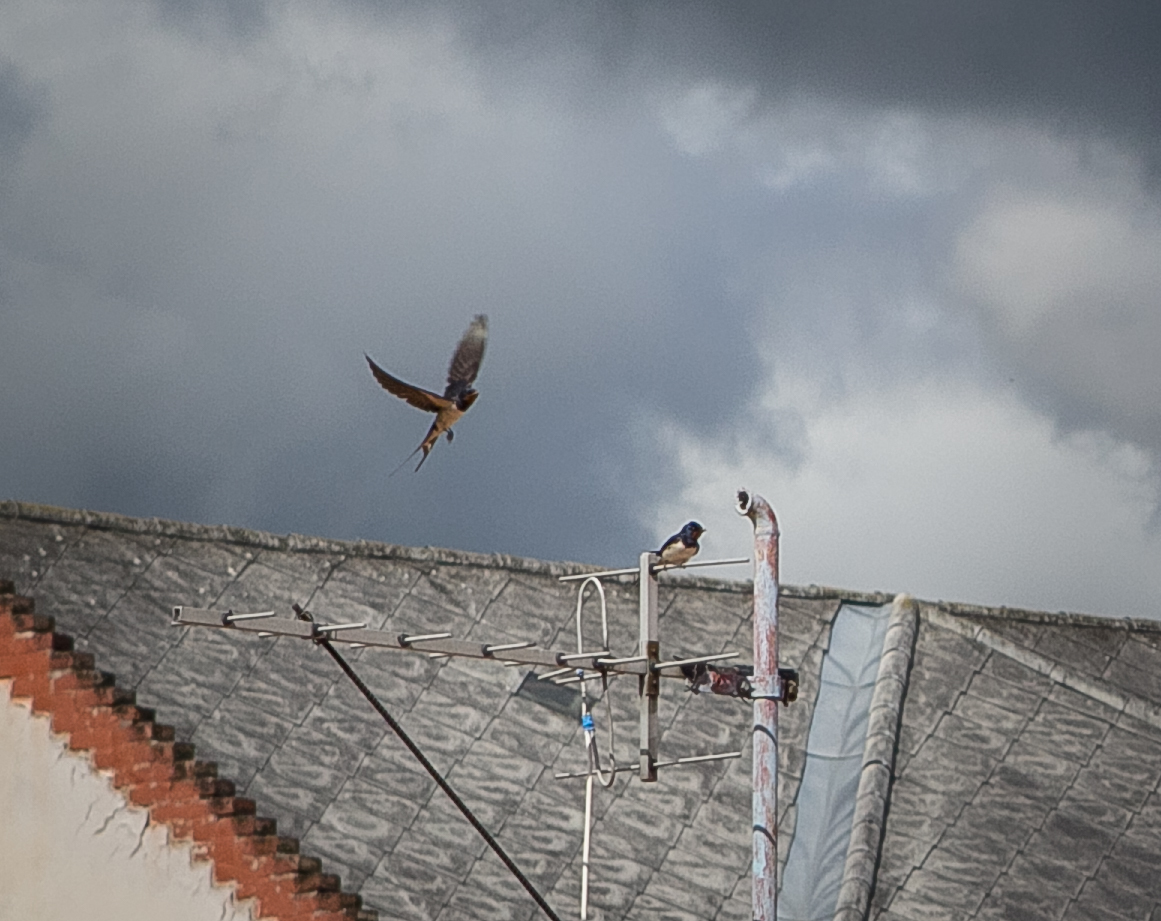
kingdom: Animalia
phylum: Chordata
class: Aves
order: Passeriformes
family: Hirundinidae
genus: Hirundo
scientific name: Hirundo rustica
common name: Barn swallow
